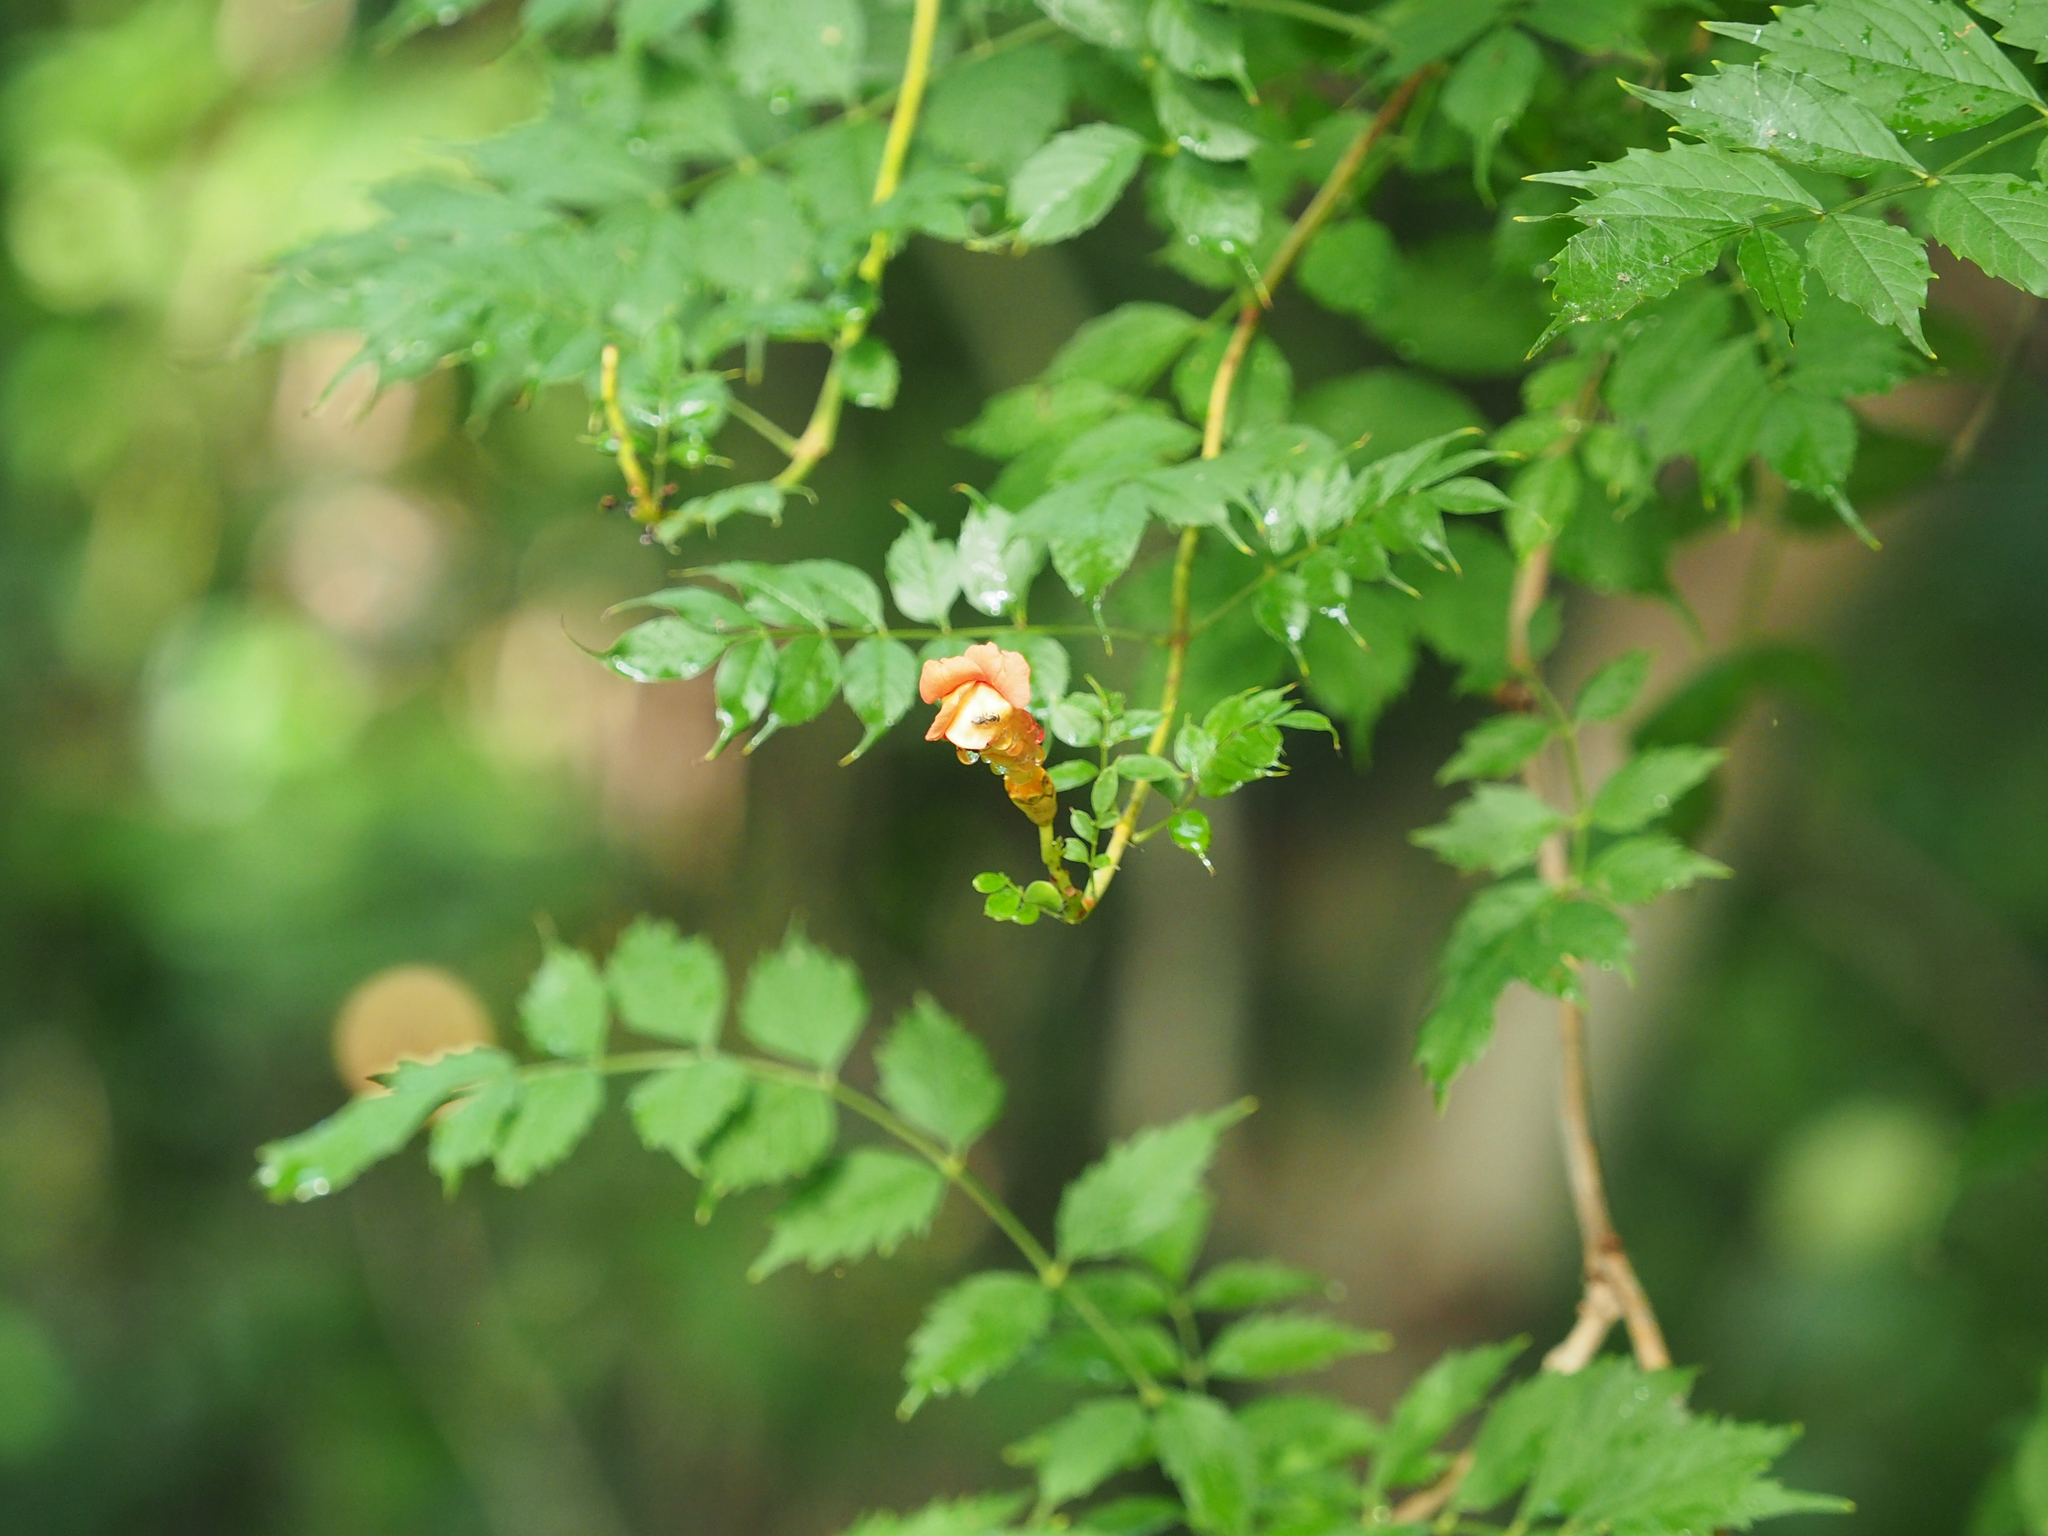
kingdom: Plantae
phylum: Tracheophyta
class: Magnoliopsida
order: Lamiales
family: Bignoniaceae
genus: Campsis
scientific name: Campsis radicans
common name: Trumpet-creeper
